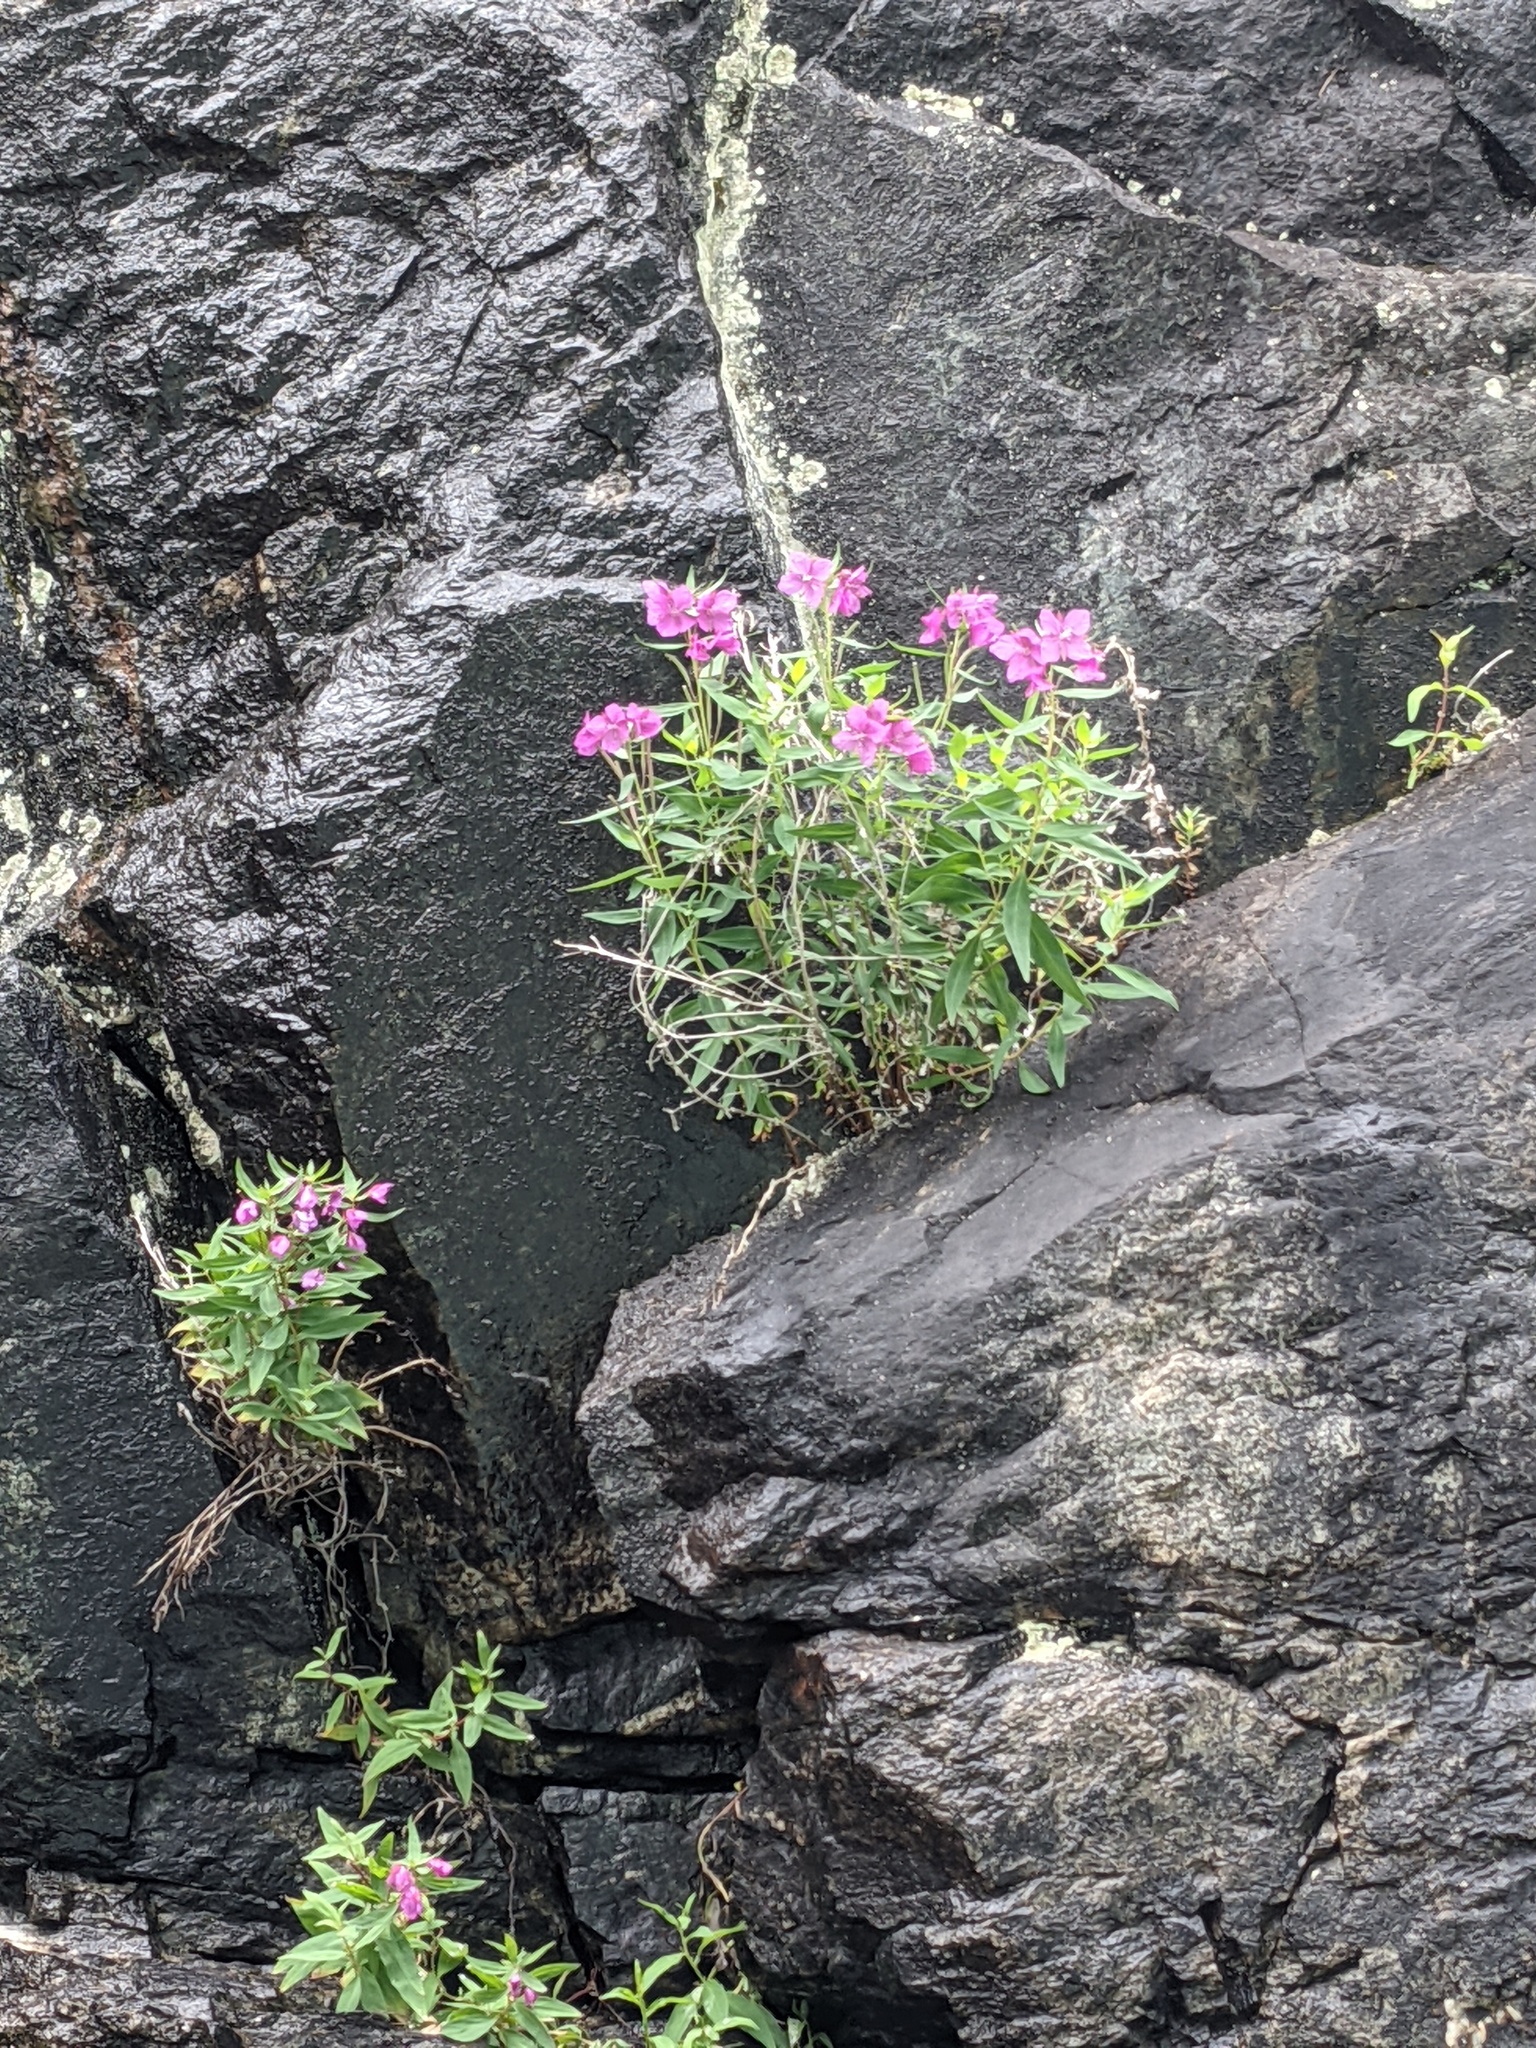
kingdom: Plantae
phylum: Tracheophyta
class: Magnoliopsida
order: Myrtales
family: Onagraceae
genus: Chamaenerion
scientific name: Chamaenerion latifolium
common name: Dwarf fireweed
